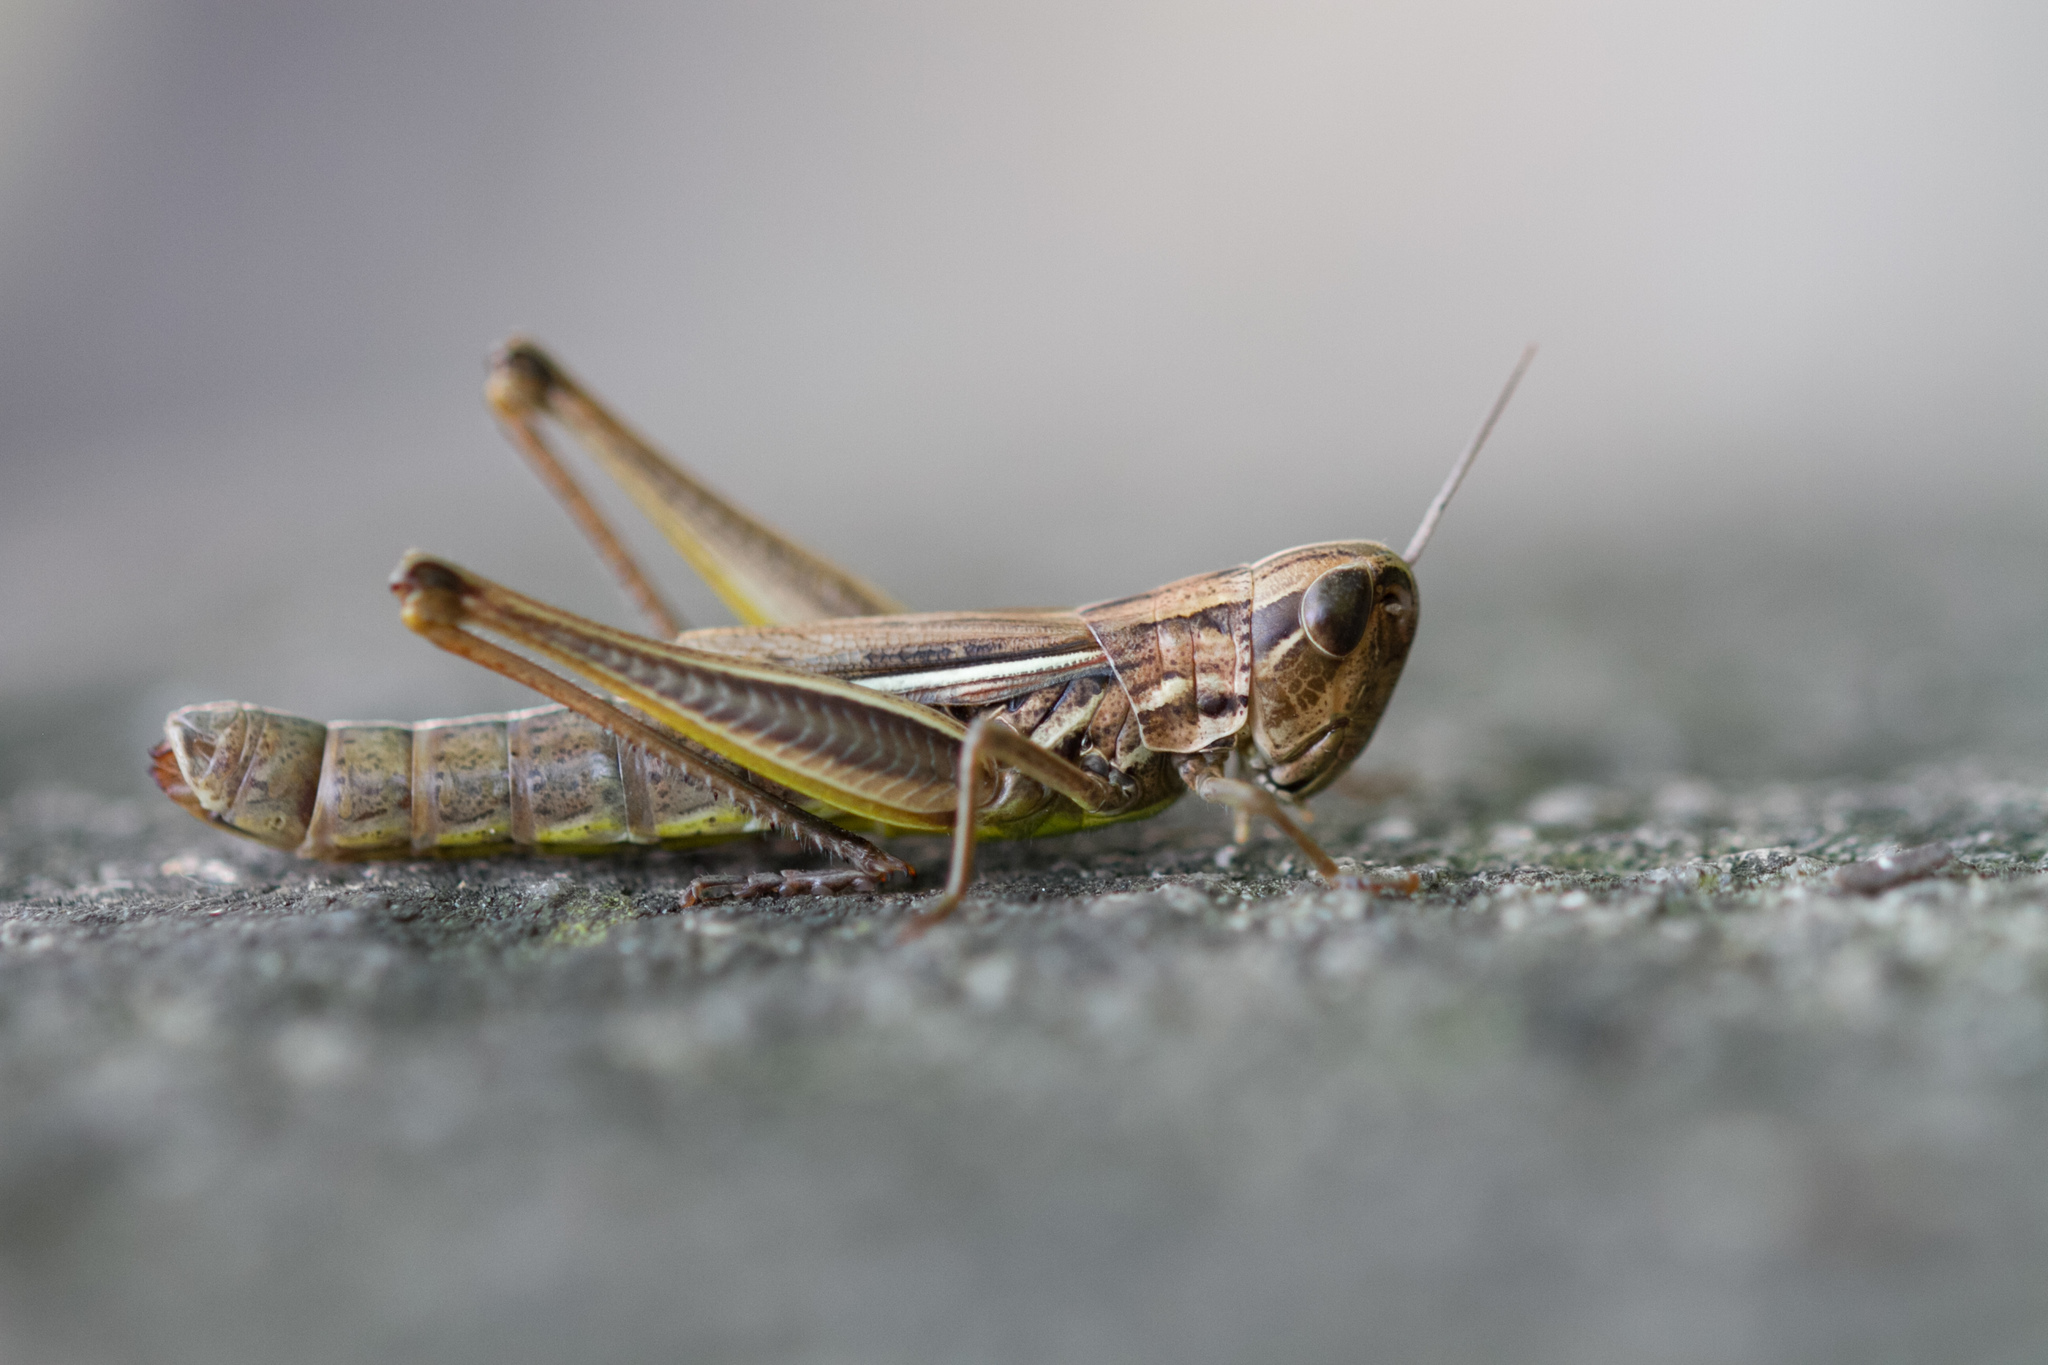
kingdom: Animalia
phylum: Arthropoda
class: Insecta
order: Orthoptera
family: Acrididae
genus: Euchorthippus
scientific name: Euchorthippus declivus
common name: Common straw grasshopper
